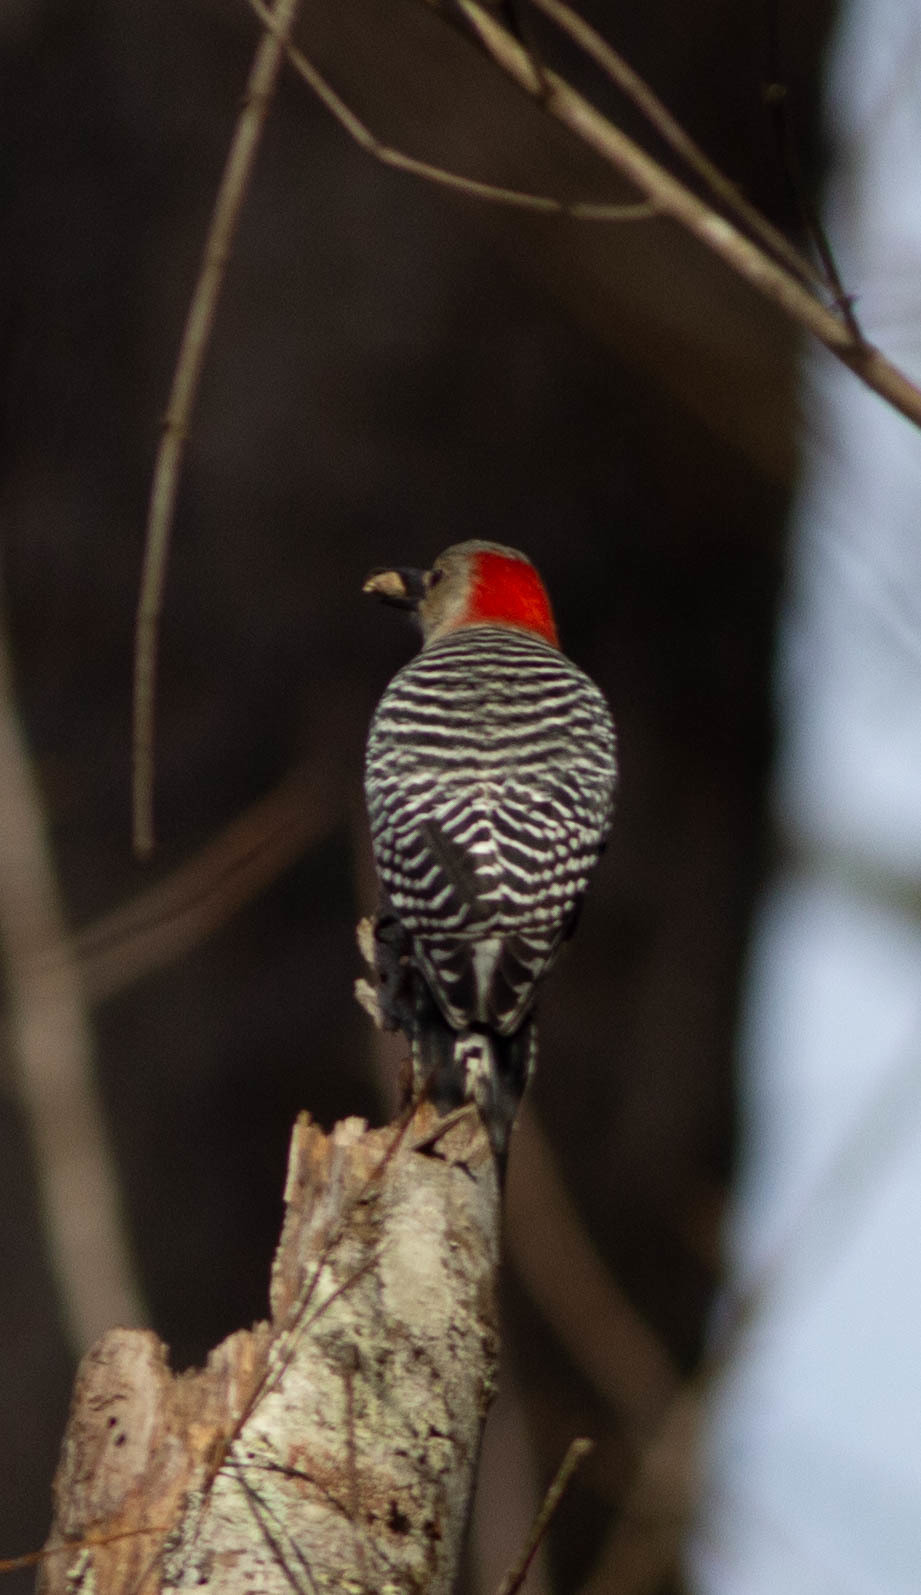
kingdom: Animalia
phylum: Chordata
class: Aves
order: Piciformes
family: Picidae
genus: Melanerpes
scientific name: Melanerpes carolinus
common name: Red-bellied woodpecker
